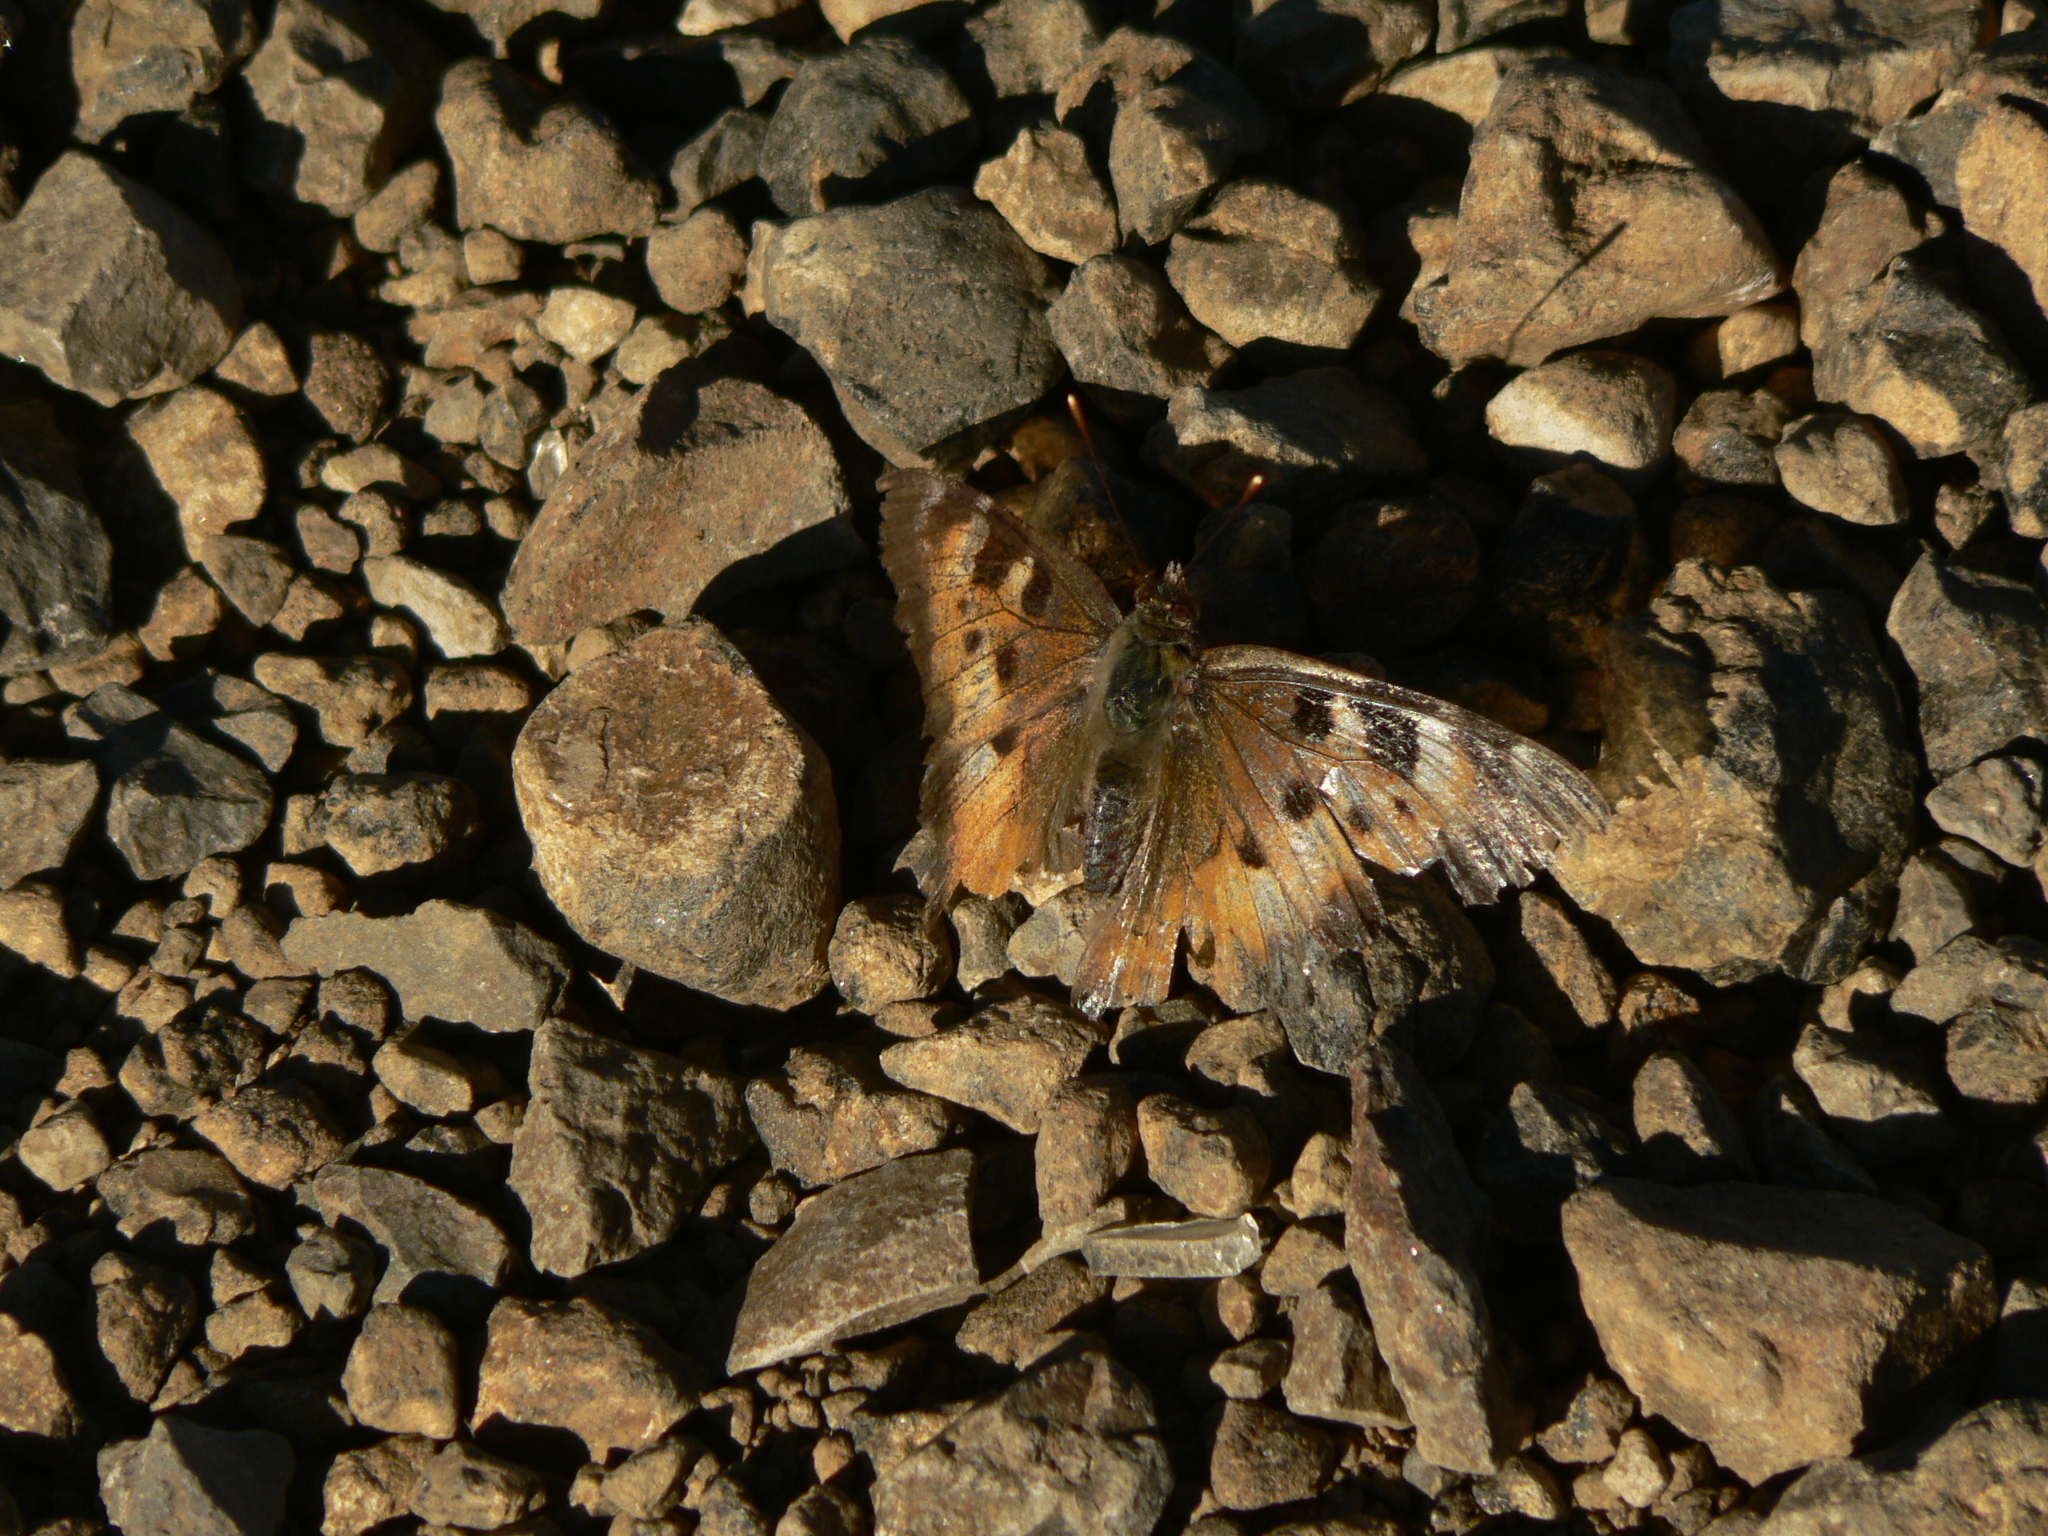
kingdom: Animalia
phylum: Arthropoda
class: Insecta
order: Lepidoptera
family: Nymphalidae
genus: Nymphalis
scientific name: Nymphalis californica
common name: California tortoiseshell
